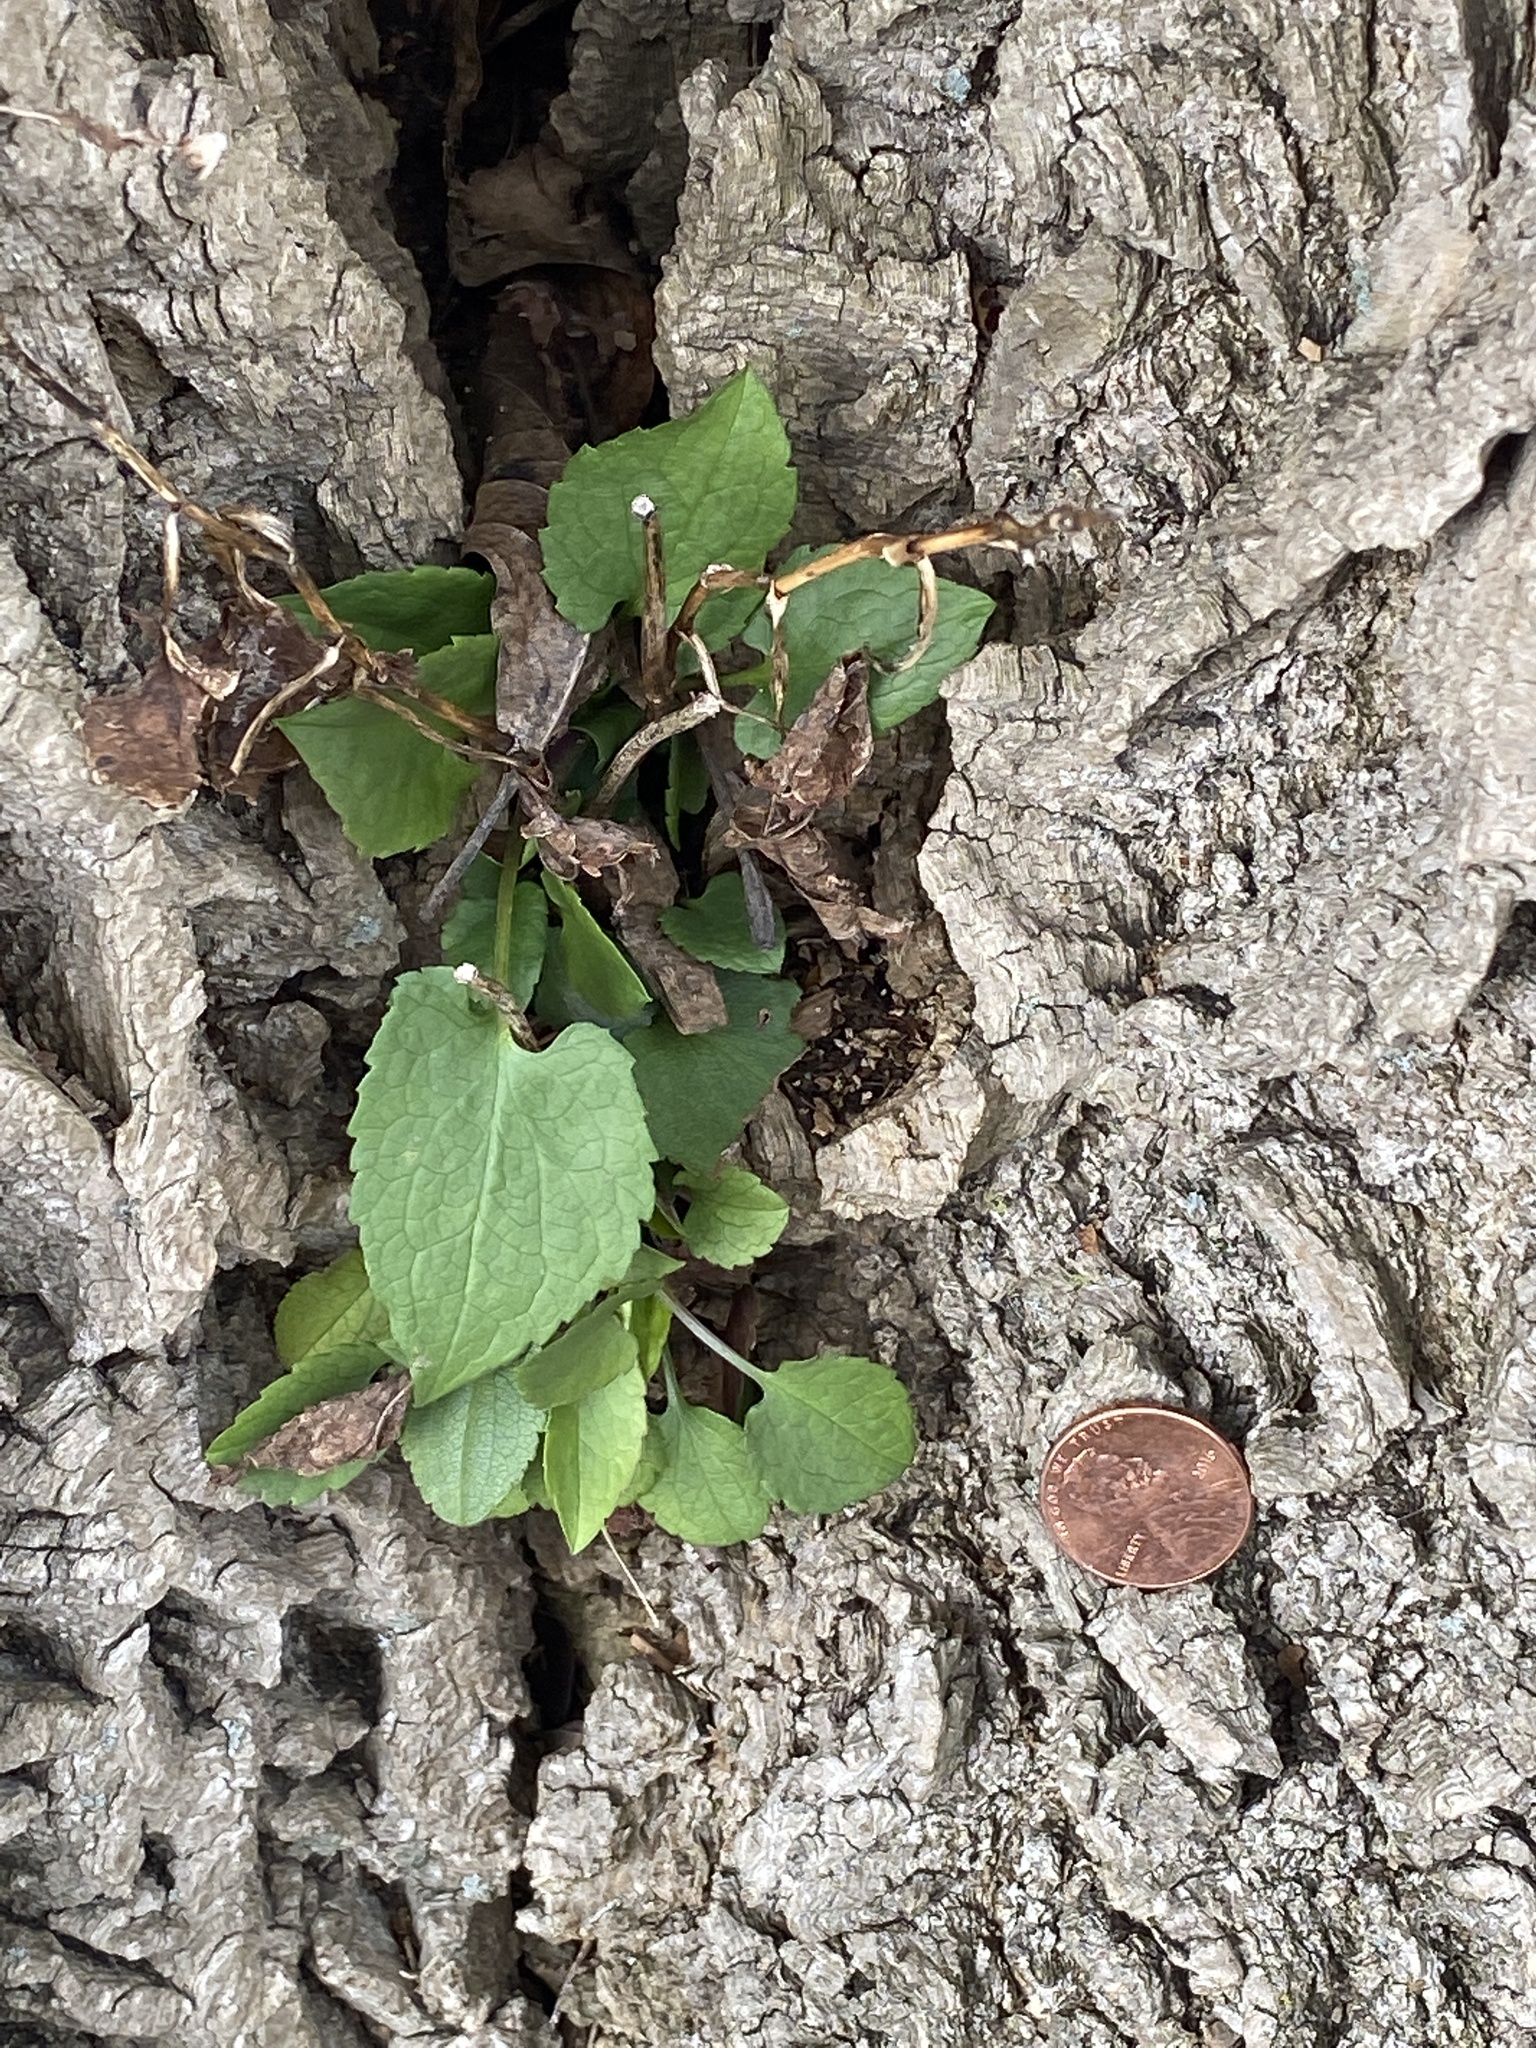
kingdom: Plantae
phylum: Tracheophyta
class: Magnoliopsida
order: Asterales
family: Asteraceae
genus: Eurybia
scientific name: Eurybia divaricata
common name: White wood aster
